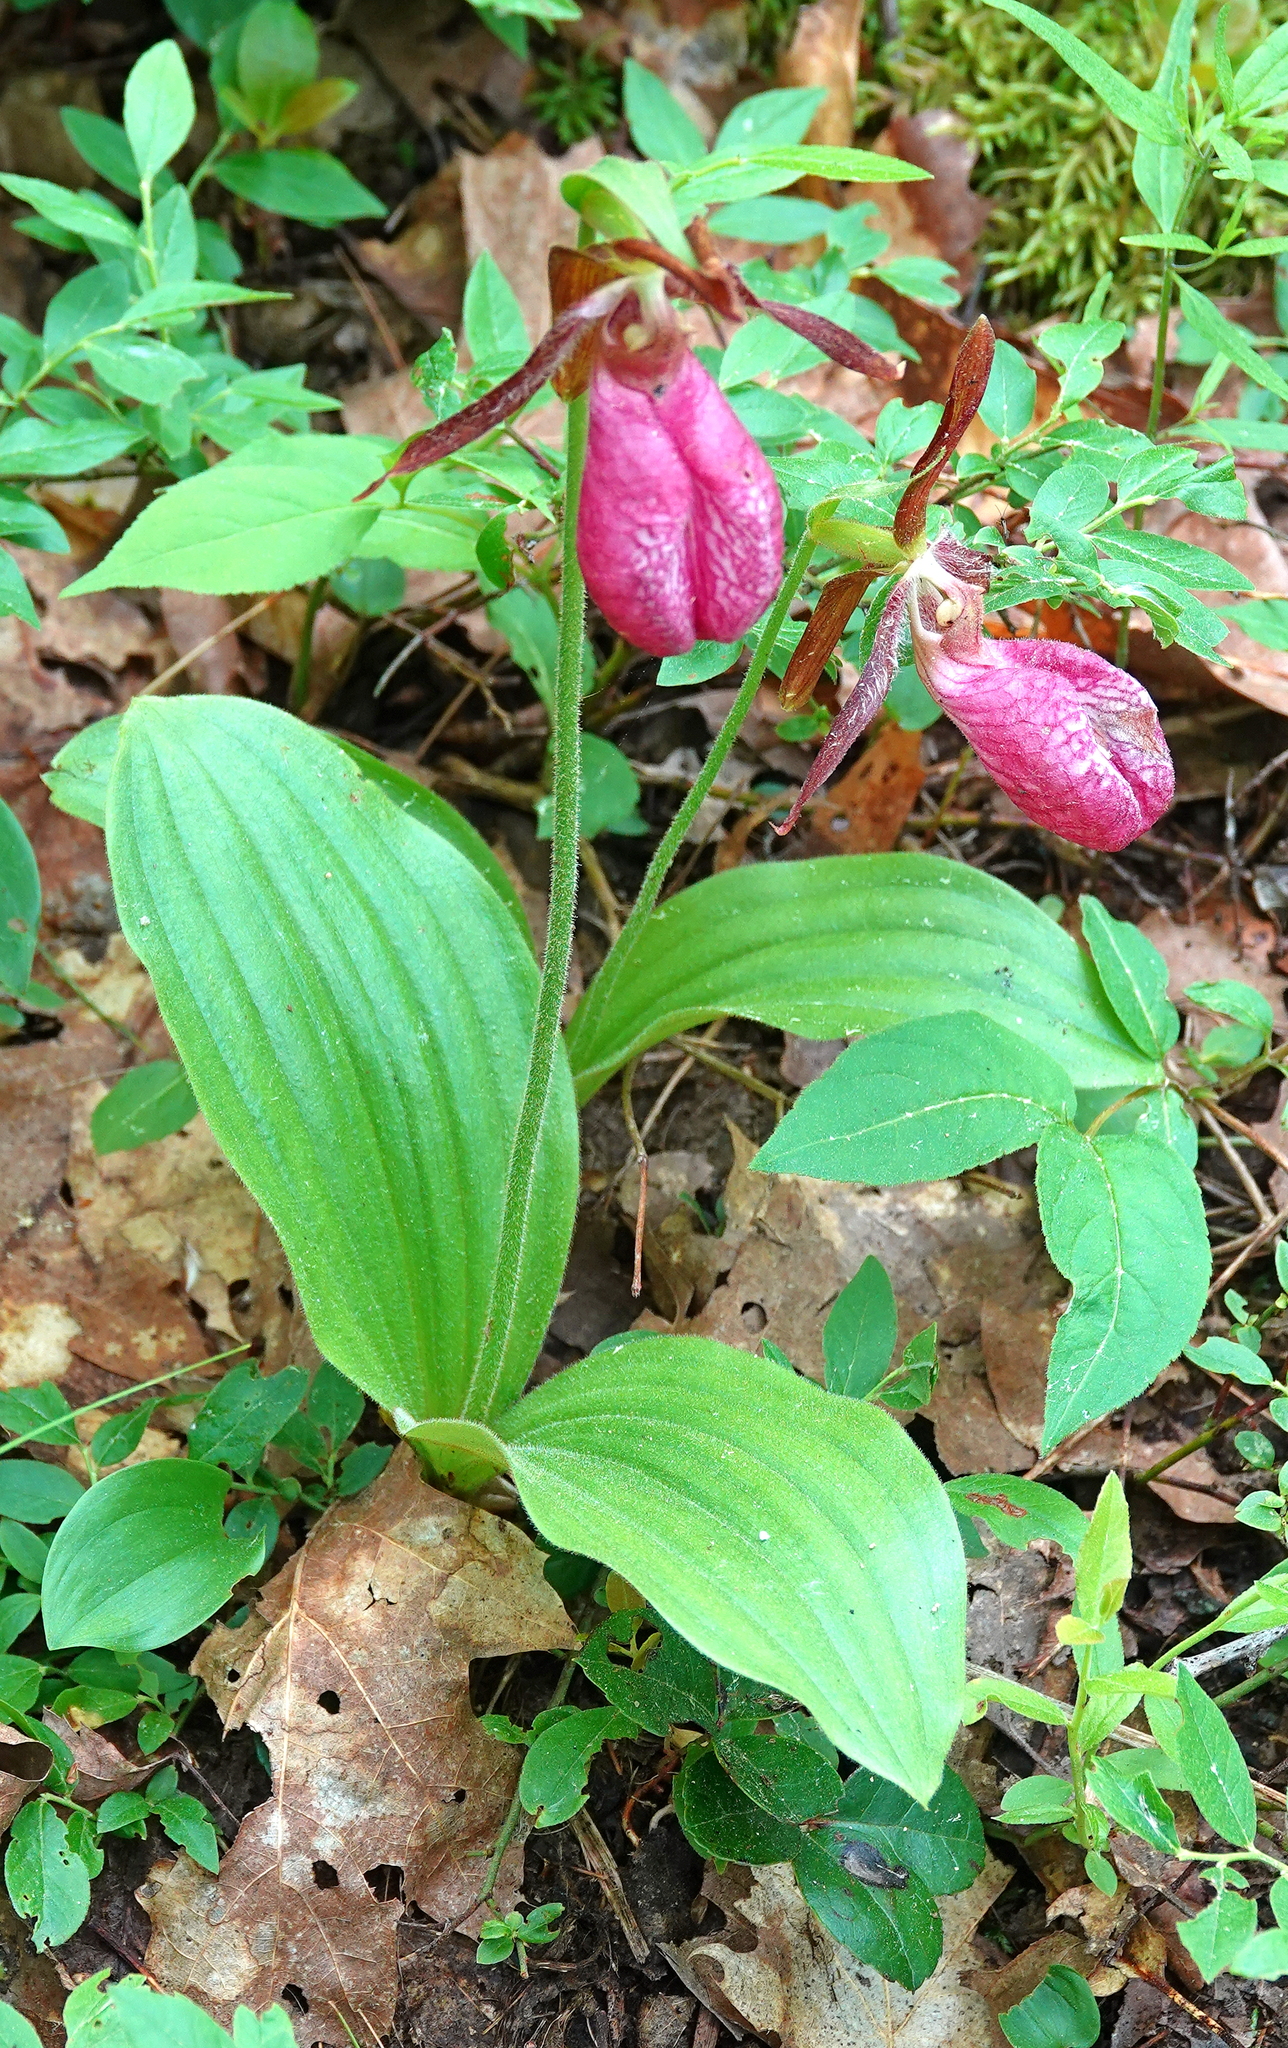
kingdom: Plantae
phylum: Tracheophyta
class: Liliopsida
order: Asparagales
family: Orchidaceae
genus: Cypripedium
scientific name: Cypripedium acaule
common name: Pink lady's-slipper
